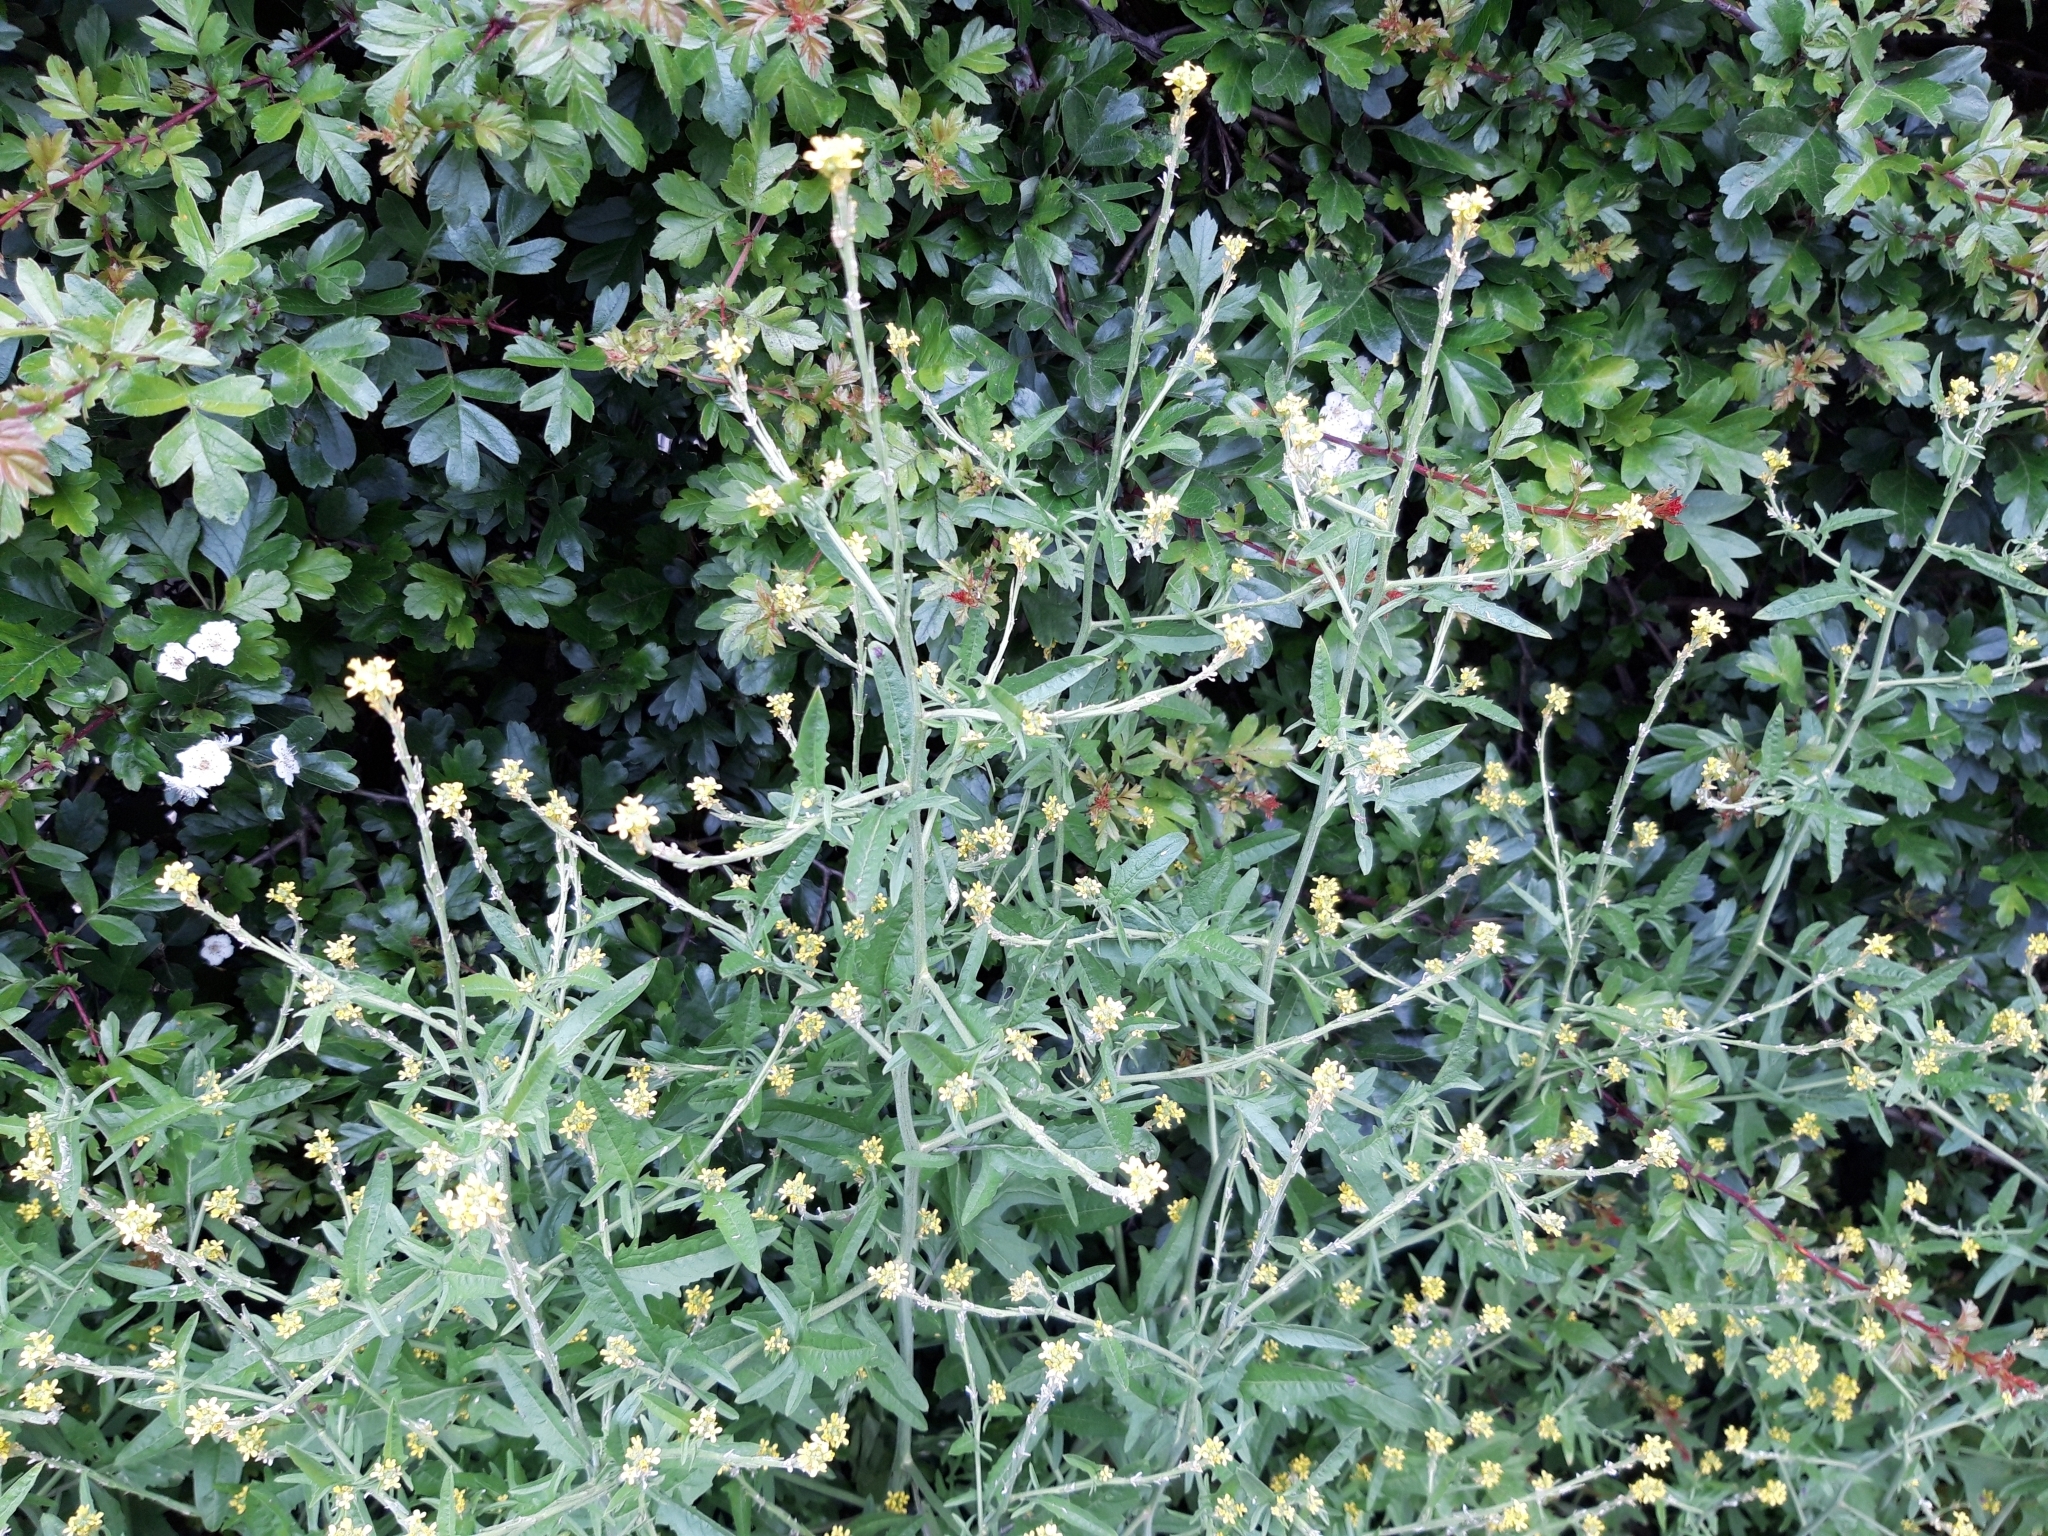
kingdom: Plantae
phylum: Tracheophyta
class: Magnoliopsida
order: Brassicales
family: Brassicaceae
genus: Sisymbrium
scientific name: Sisymbrium officinale
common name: Hedge mustard
